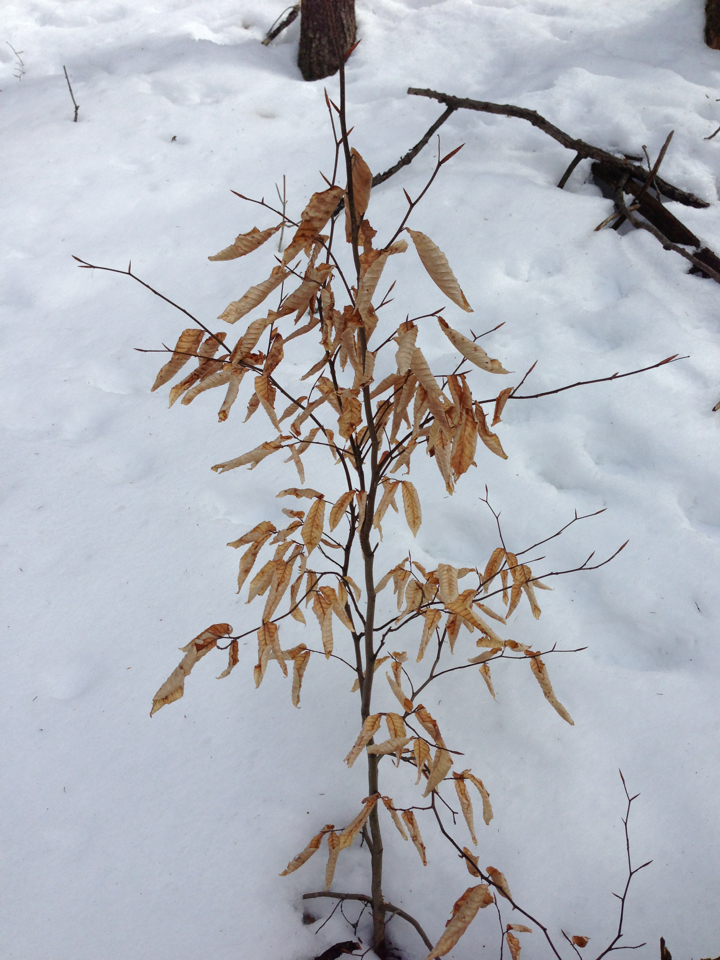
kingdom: Plantae
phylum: Tracheophyta
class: Magnoliopsida
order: Fagales
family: Fagaceae
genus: Fagus
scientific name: Fagus grandifolia
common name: American beech
